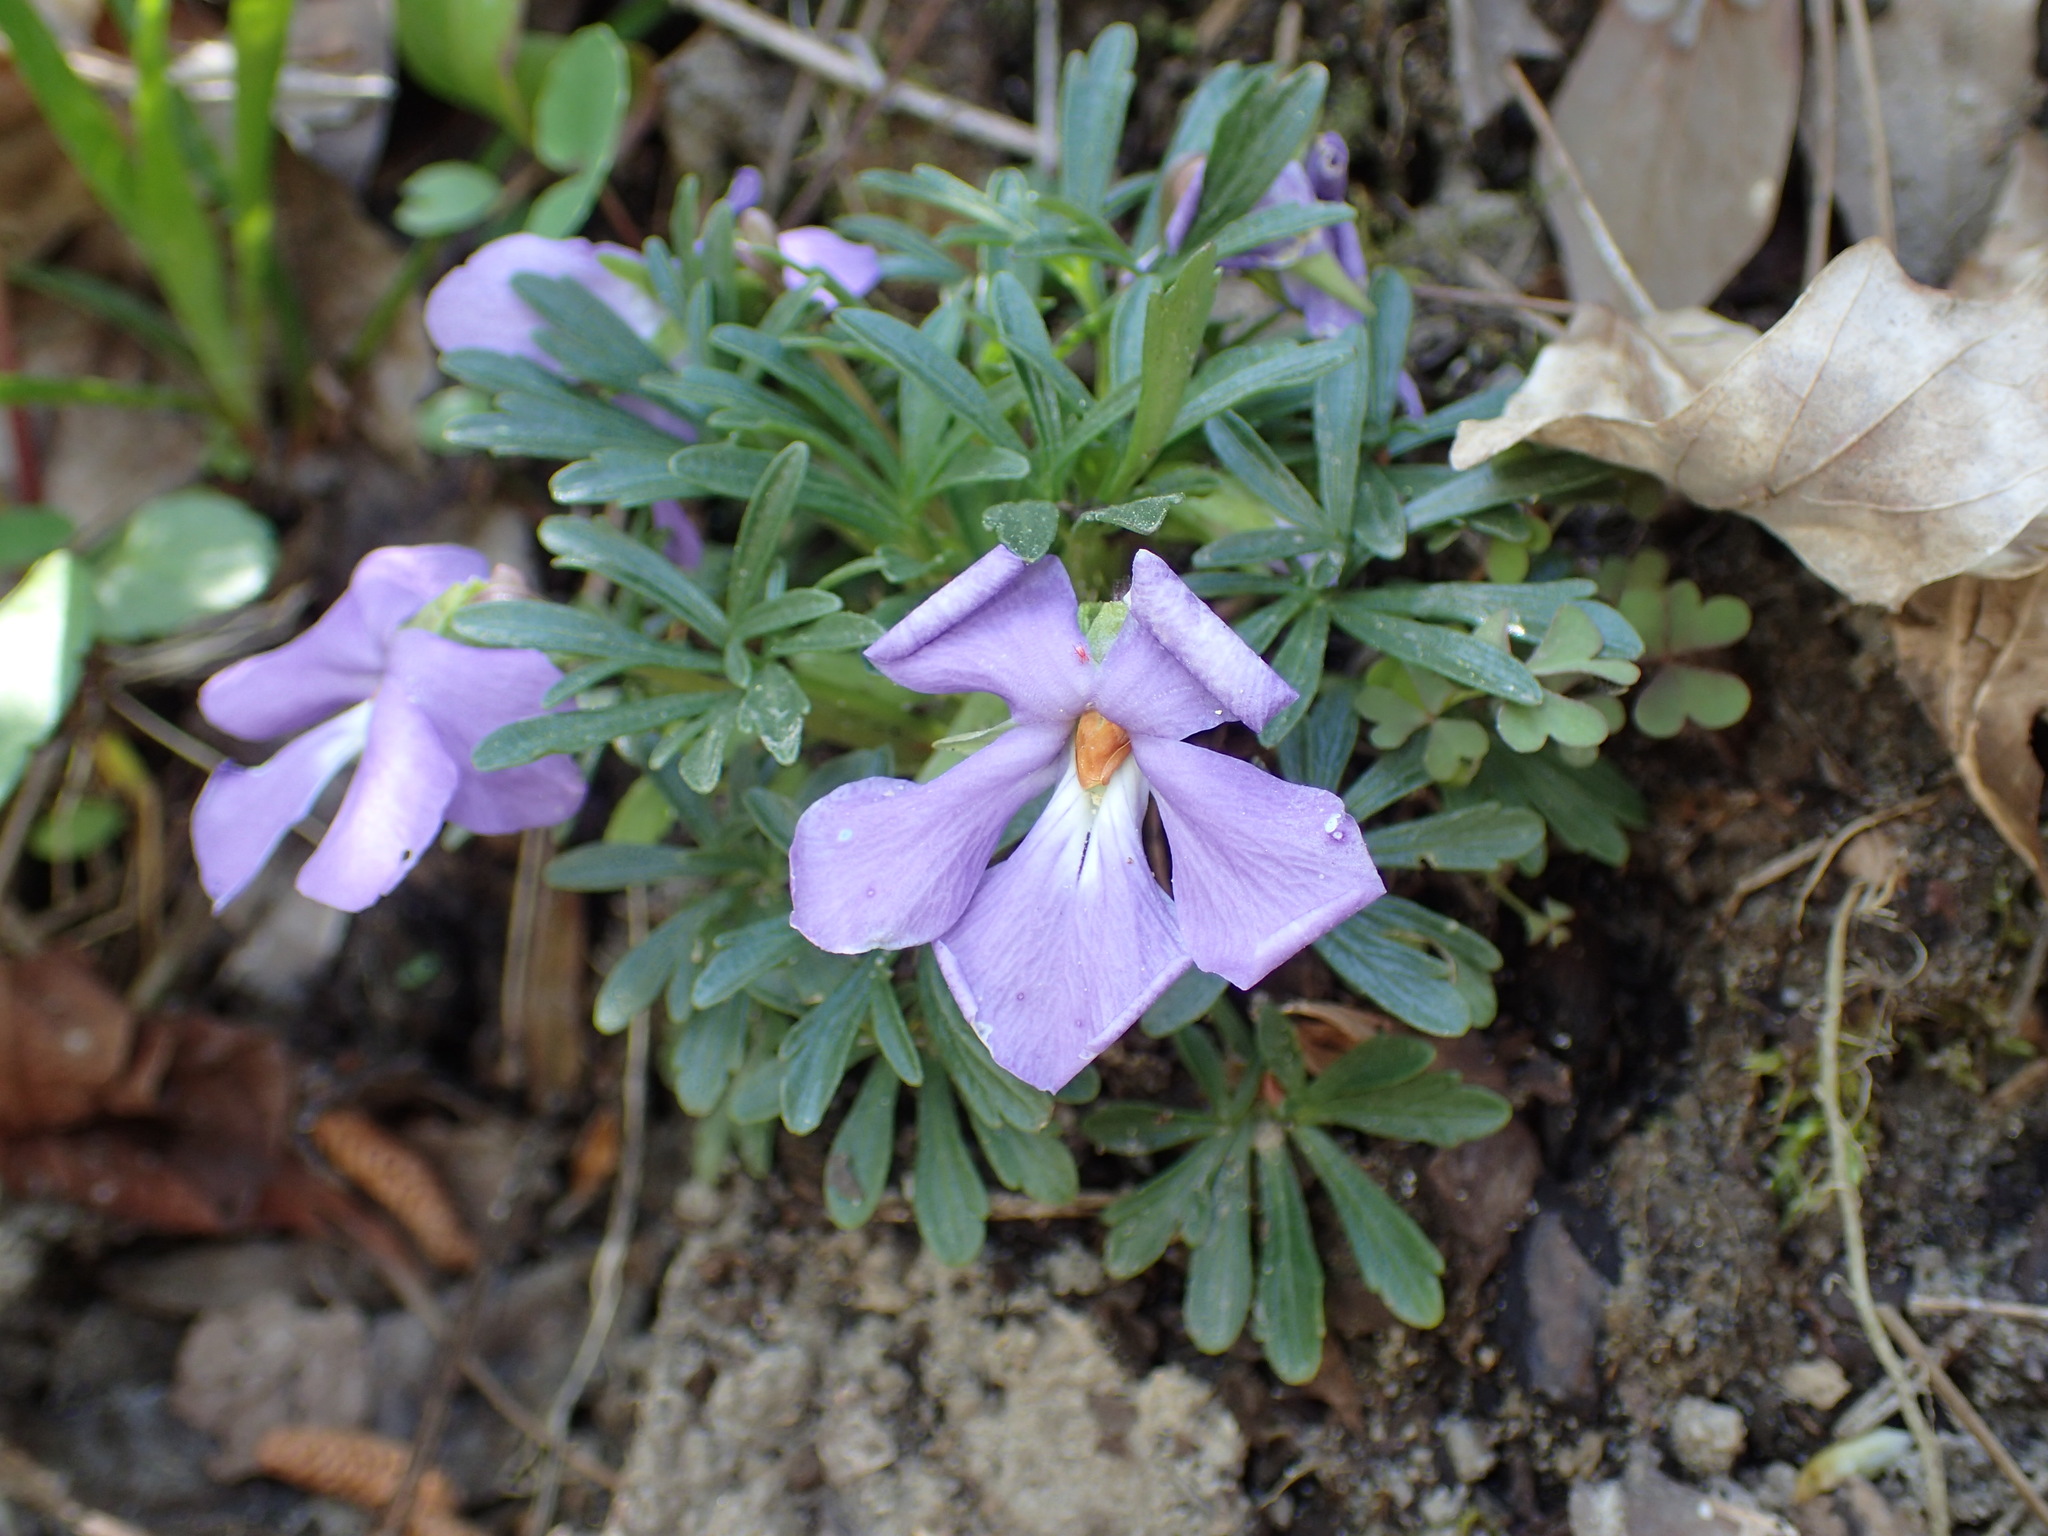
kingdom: Plantae
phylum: Tracheophyta
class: Magnoliopsida
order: Malpighiales
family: Violaceae
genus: Viola
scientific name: Viola pedata
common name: Pansy violet
